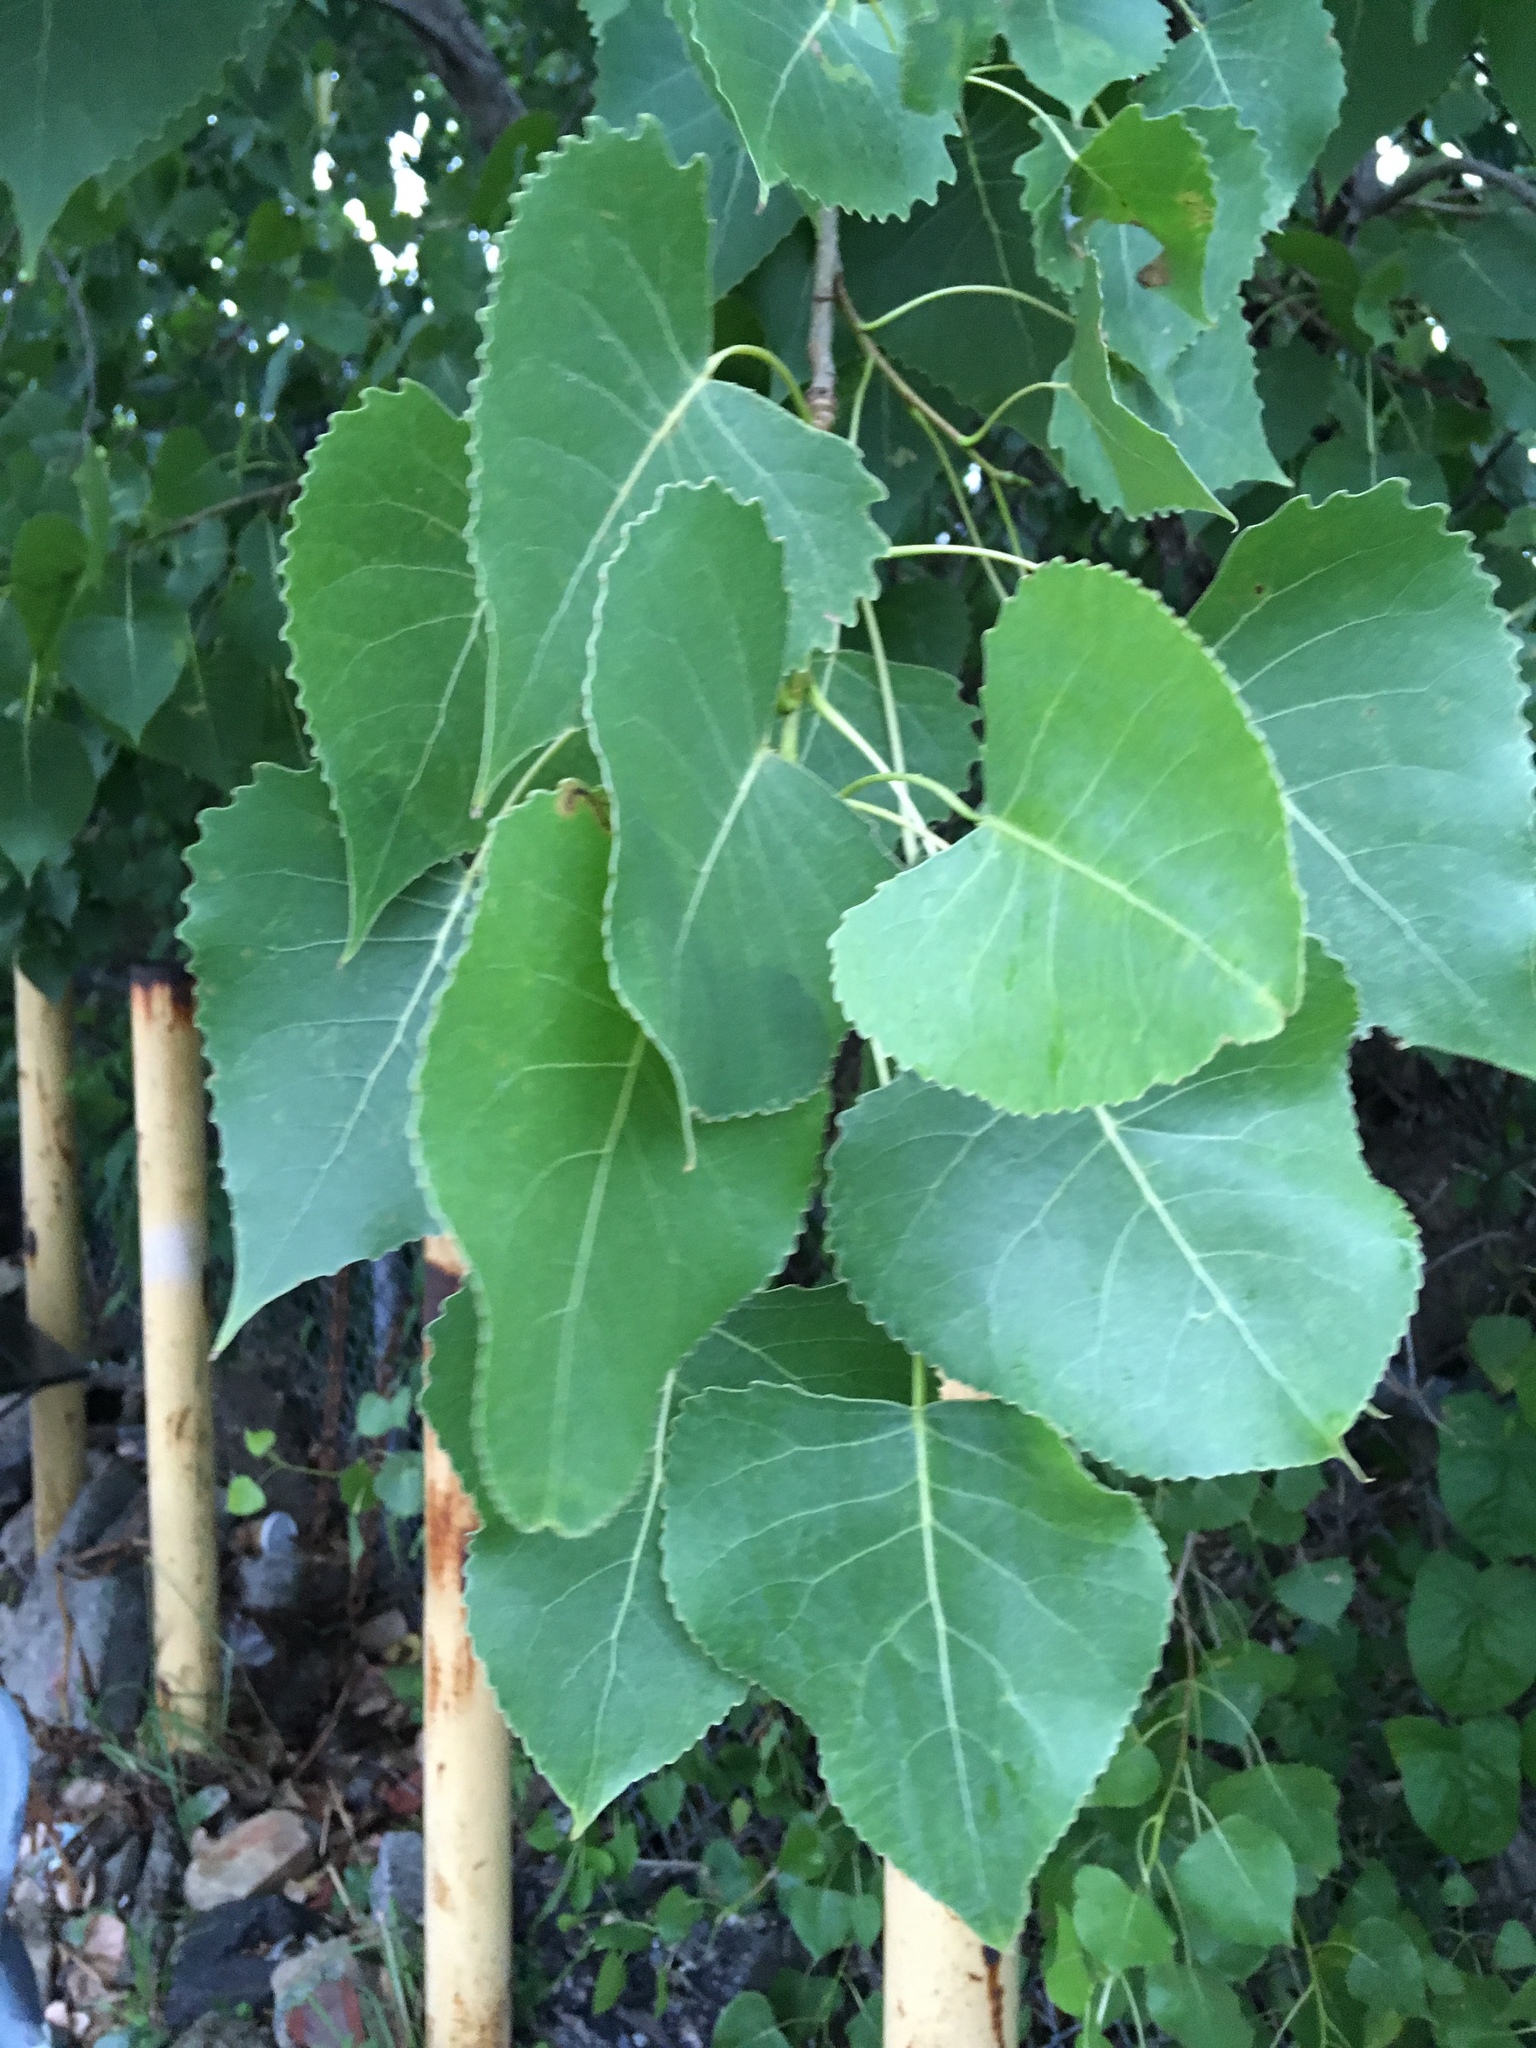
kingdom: Plantae
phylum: Tracheophyta
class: Magnoliopsida
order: Malpighiales
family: Salicaceae
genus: Populus
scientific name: Populus deltoides
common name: Eastern cottonwood
